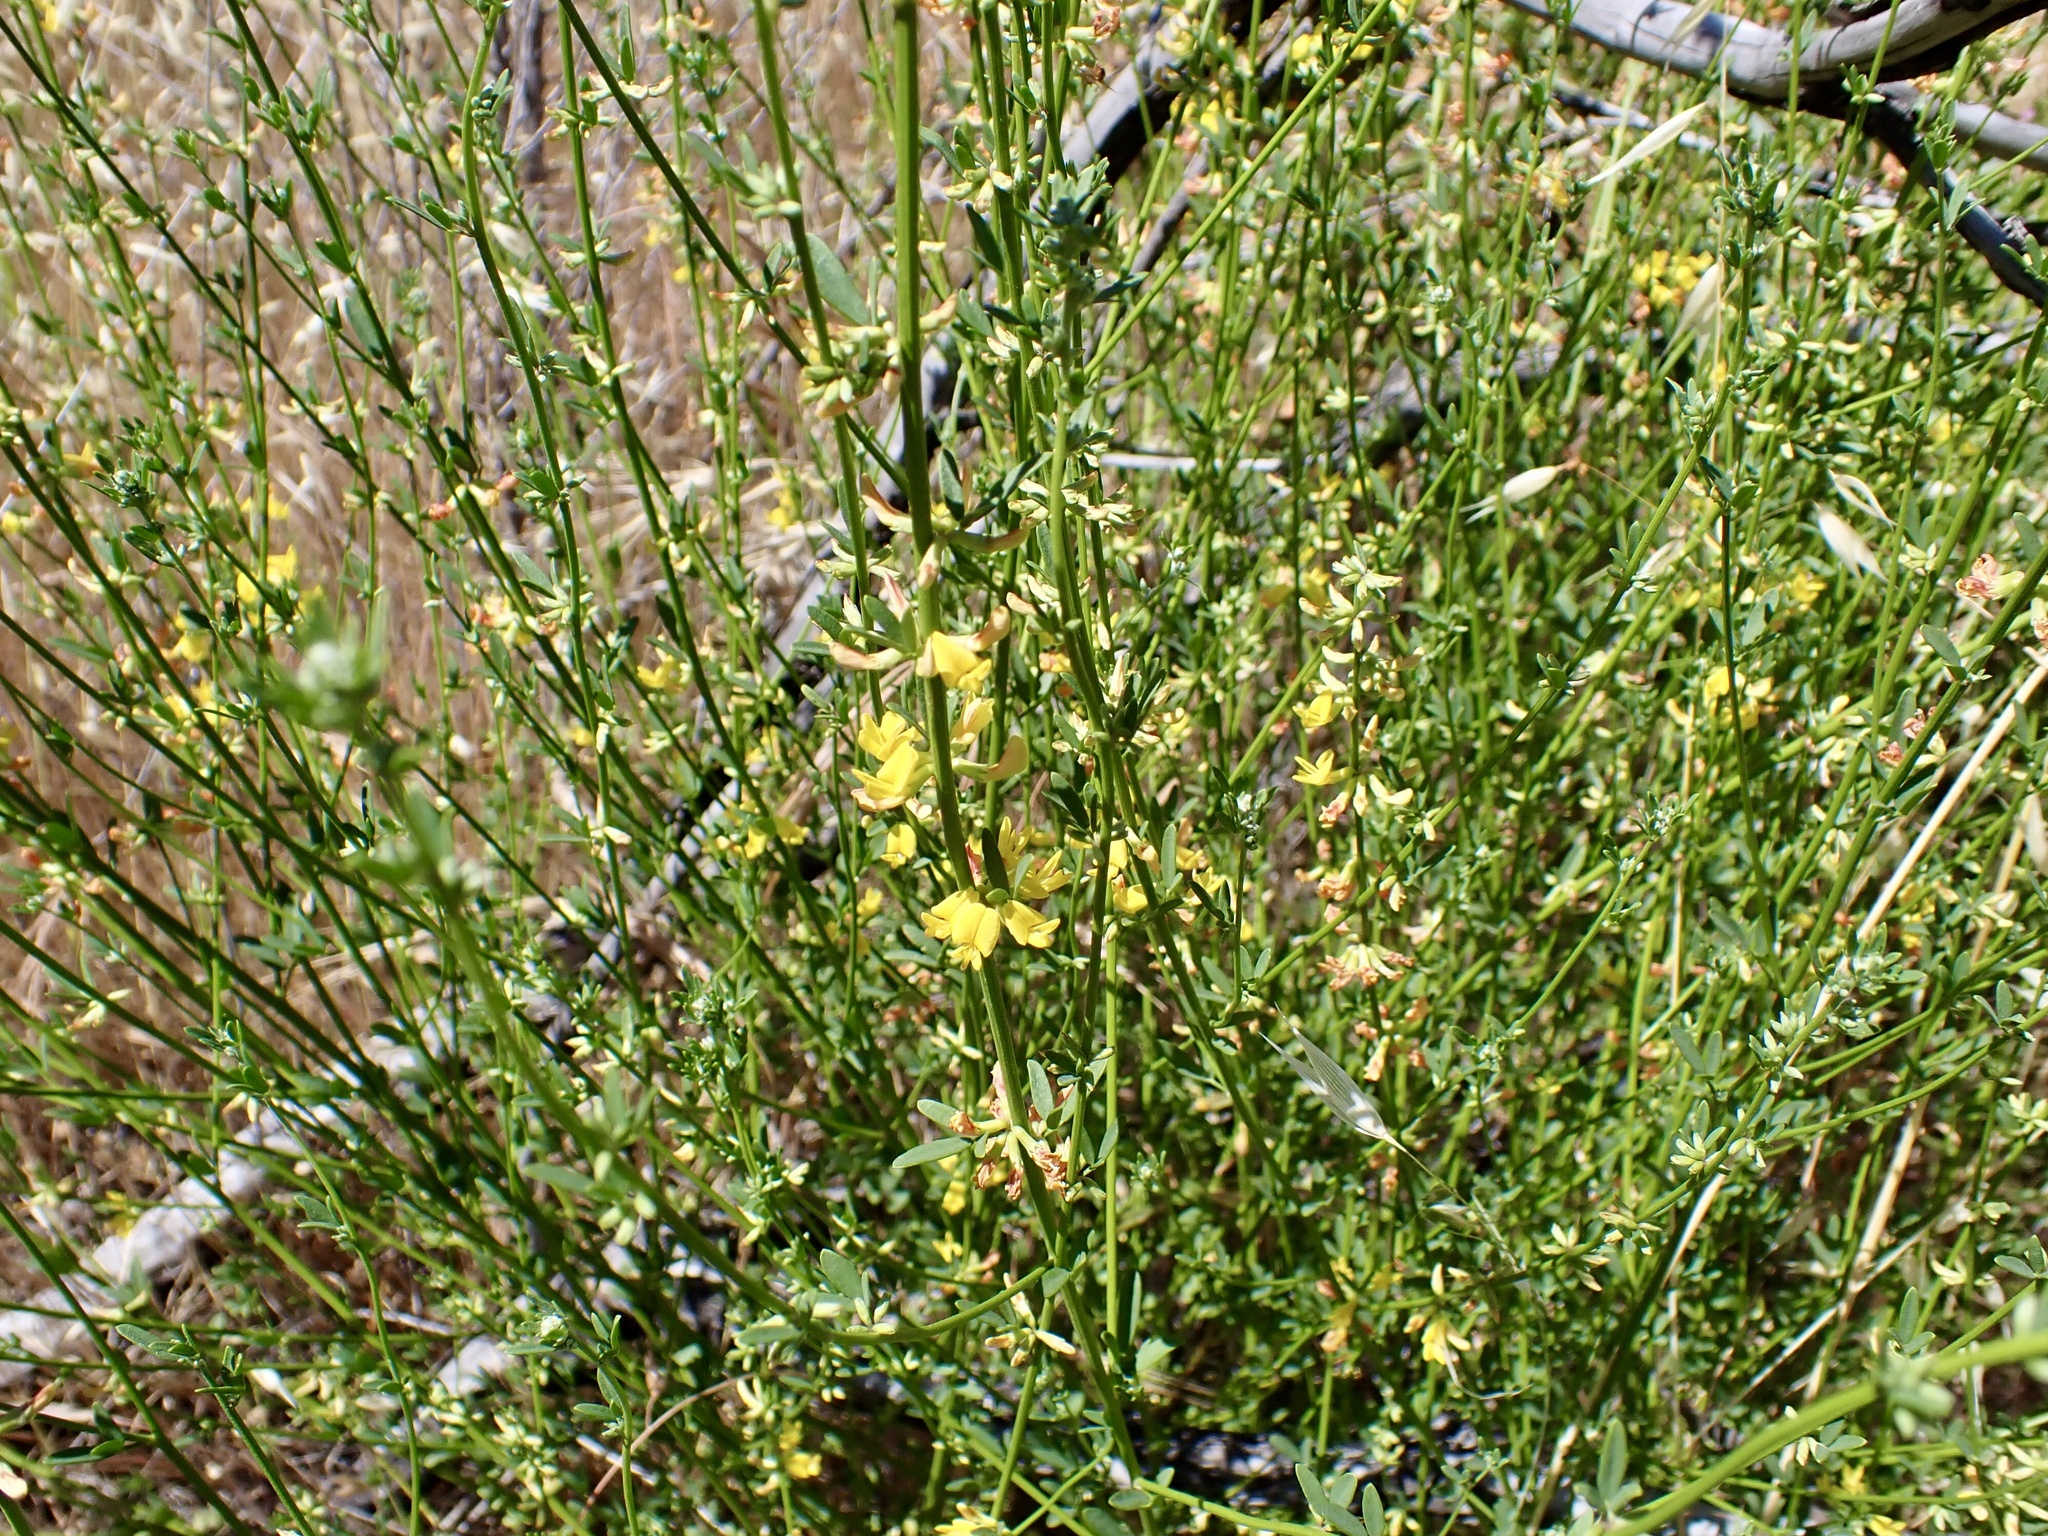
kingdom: Plantae
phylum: Tracheophyta
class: Magnoliopsida
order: Fabales
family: Fabaceae
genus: Acmispon
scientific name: Acmispon glaber
